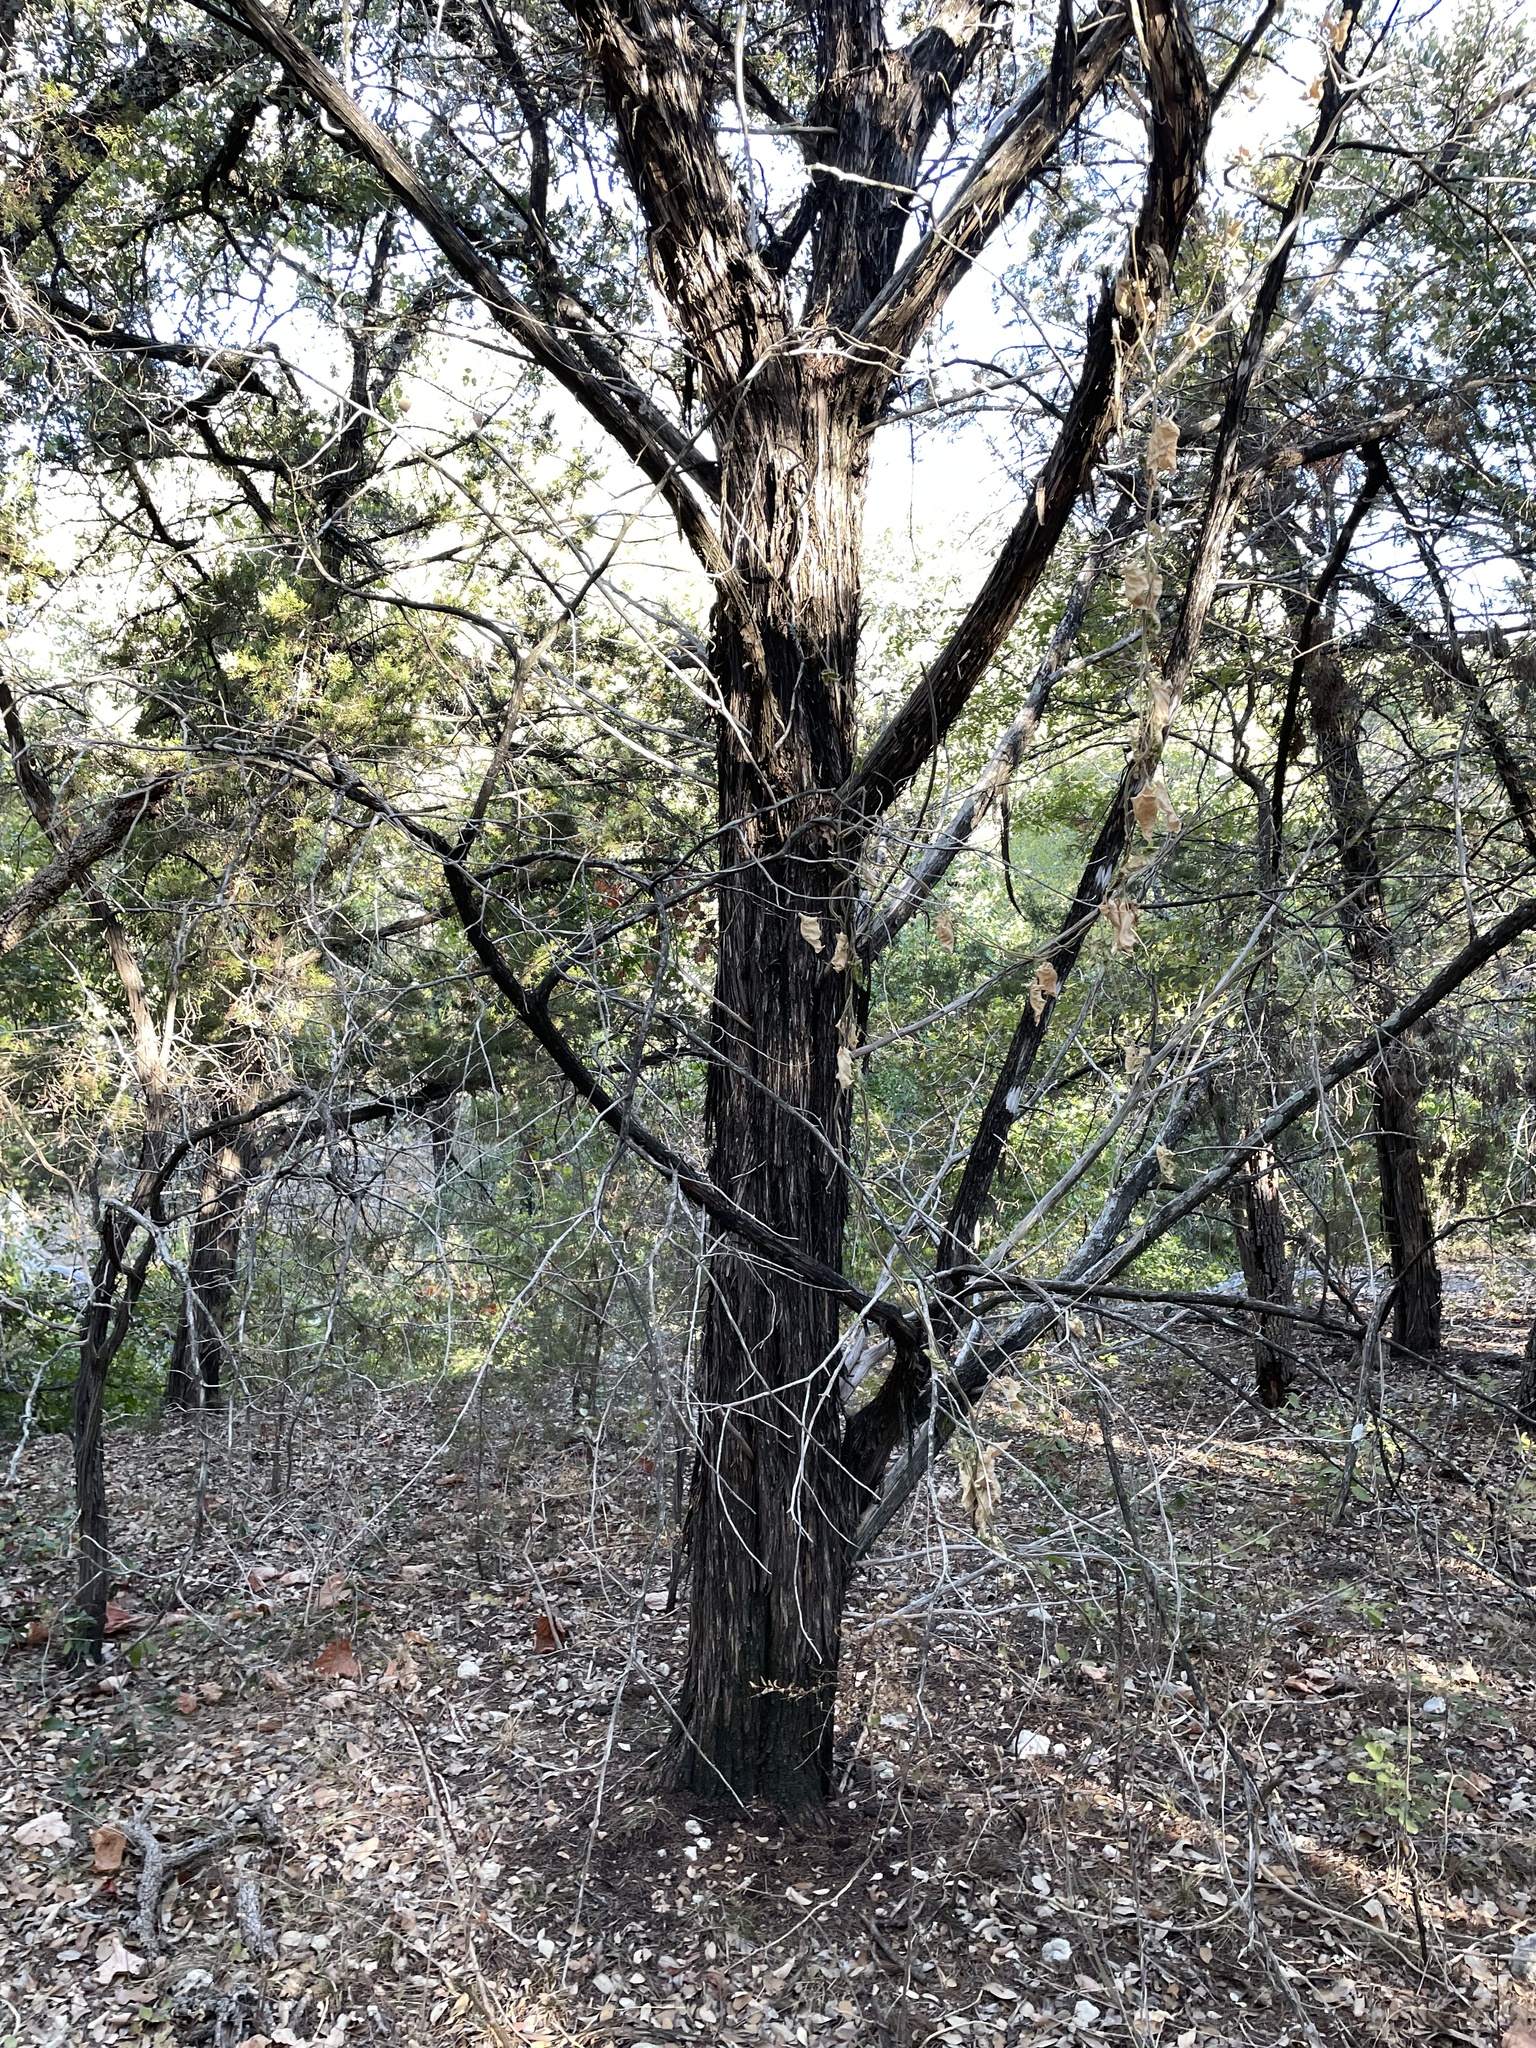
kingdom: Plantae
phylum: Tracheophyta
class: Pinopsida
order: Pinales
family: Cupressaceae
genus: Juniperus
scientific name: Juniperus ashei
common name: Mexican juniper
